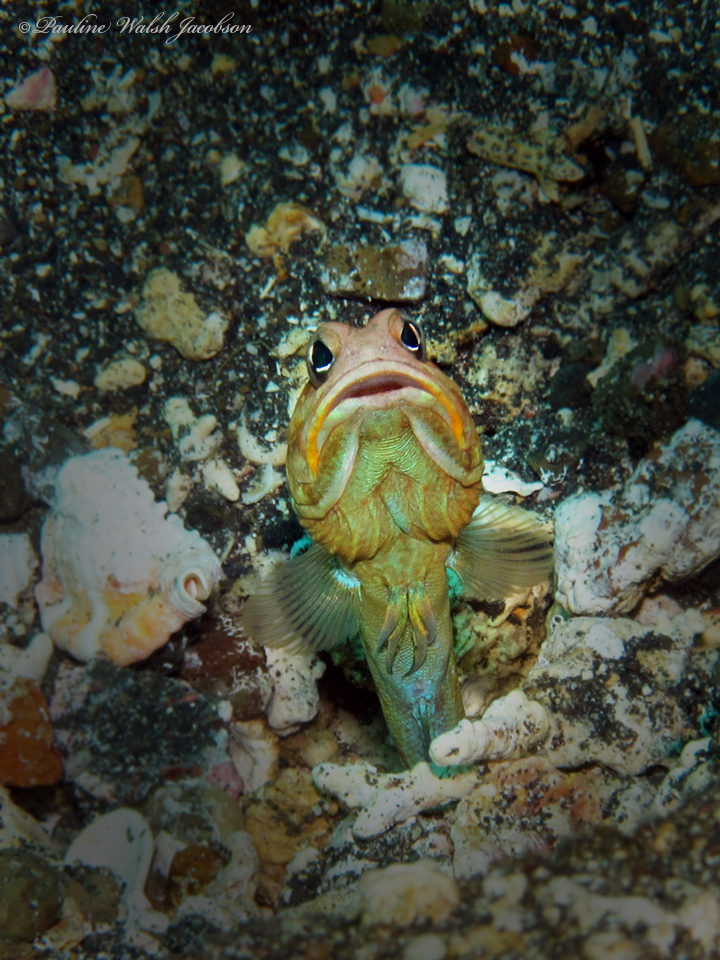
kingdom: Animalia
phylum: Chordata
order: Perciformes
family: Opistognathidae
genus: Opistognathus
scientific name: Opistognathus variabilis
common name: Variable jawfish
